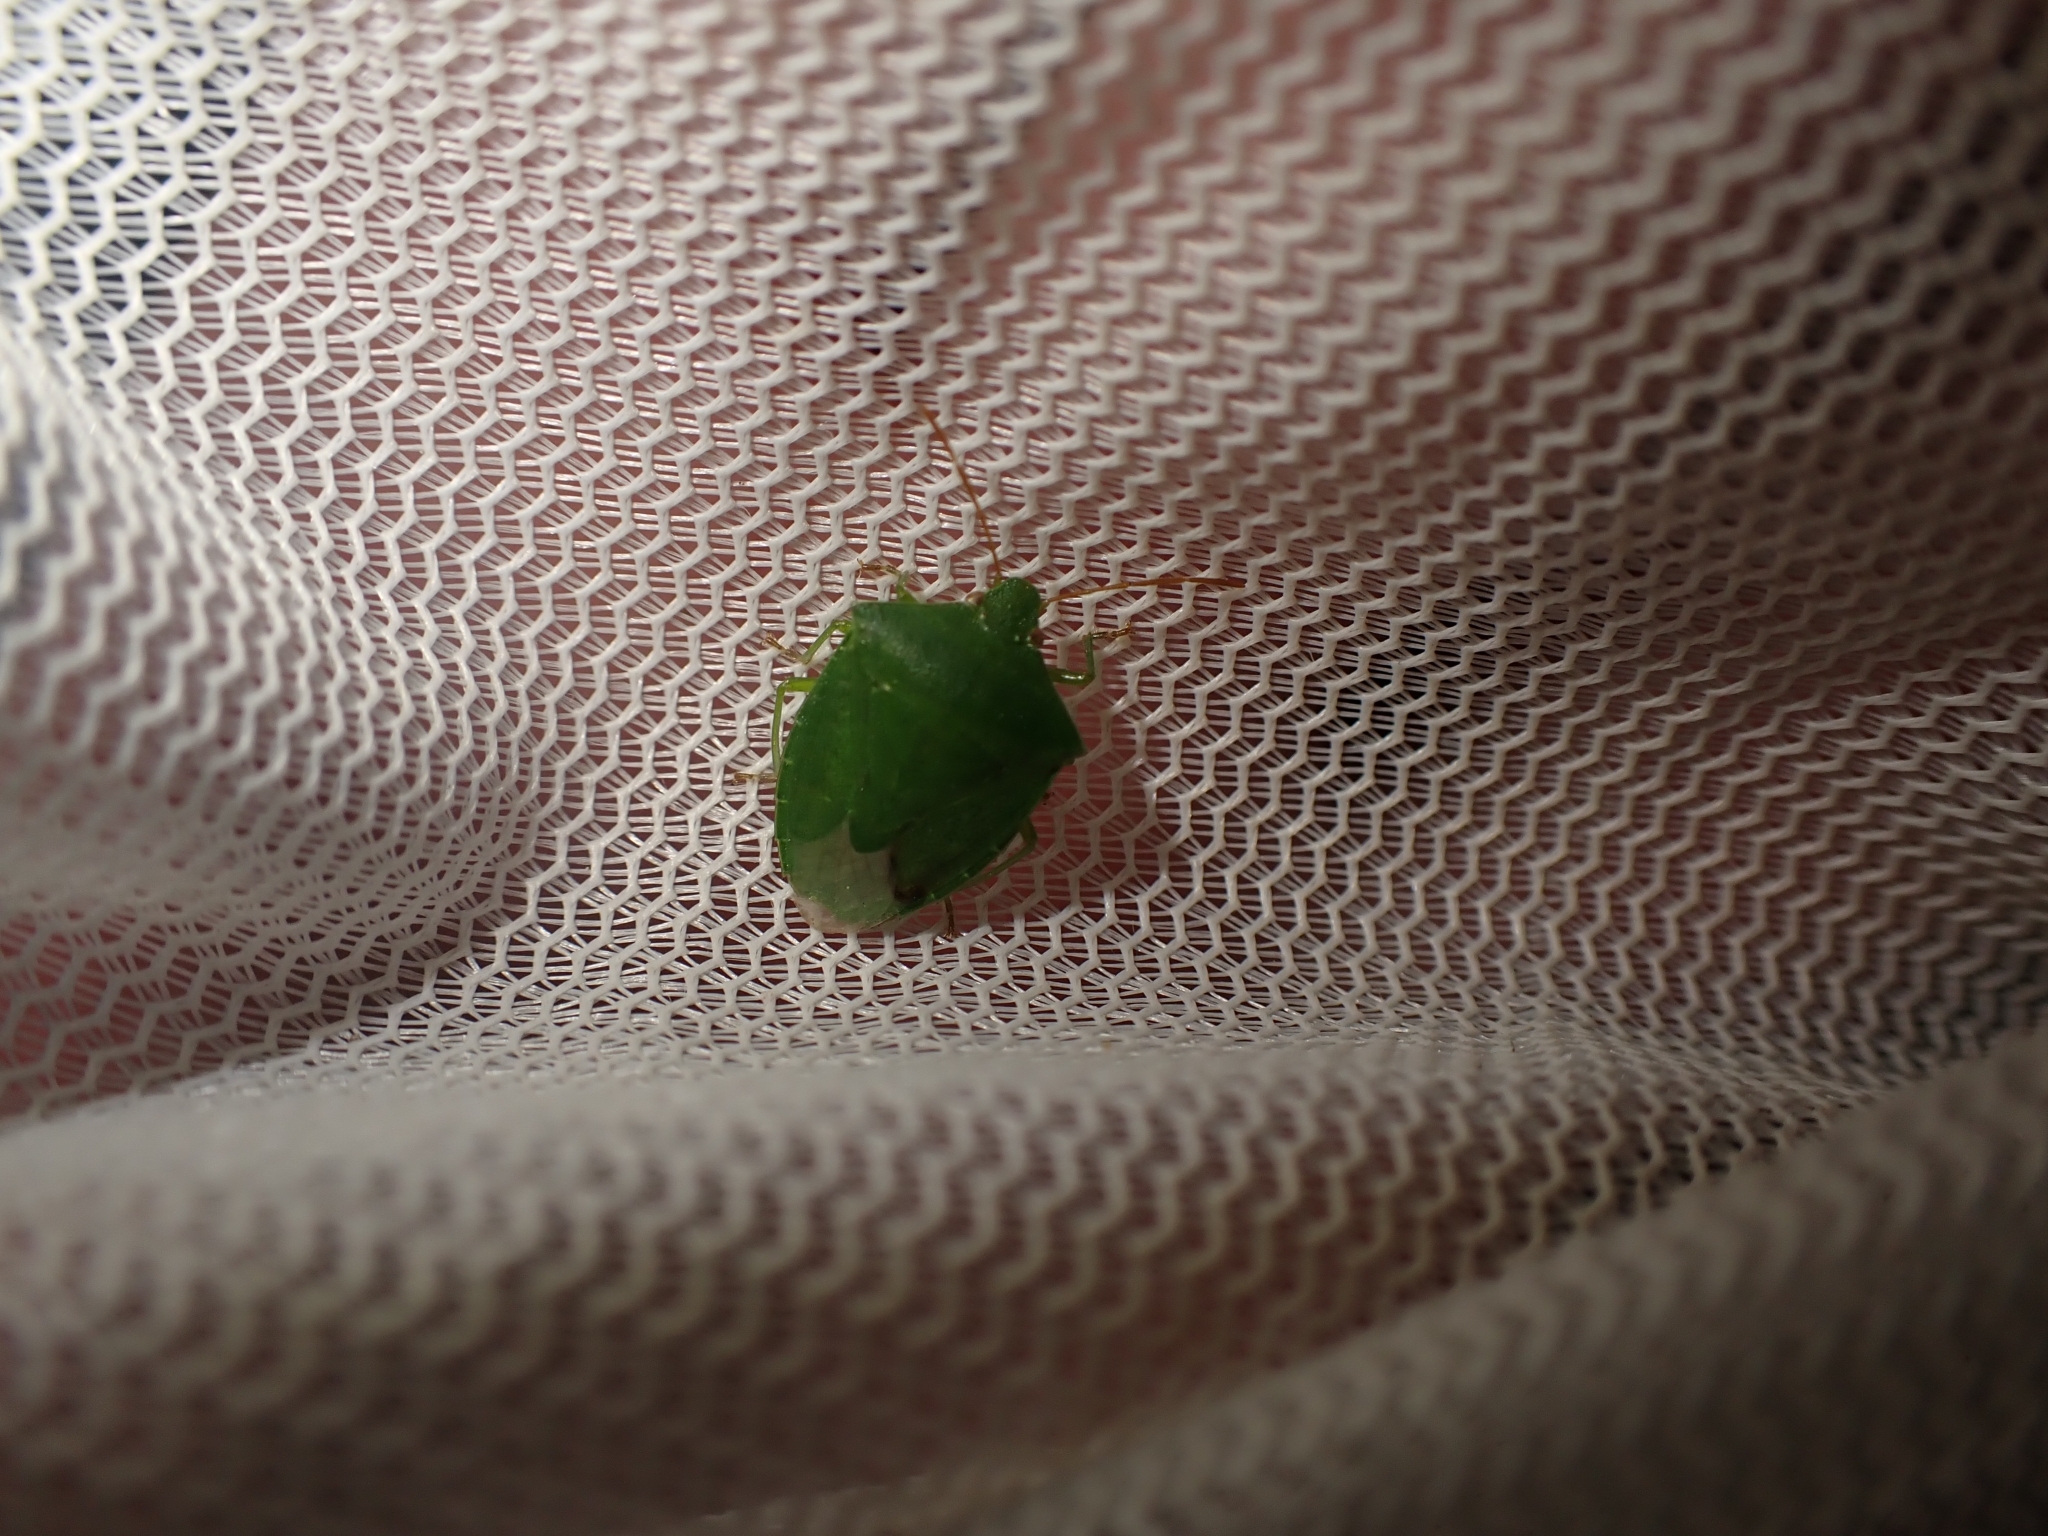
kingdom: Animalia
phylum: Arthropoda
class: Insecta
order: Hemiptera
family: Pentatomidae
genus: Cuspicona
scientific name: Cuspicona simplex
